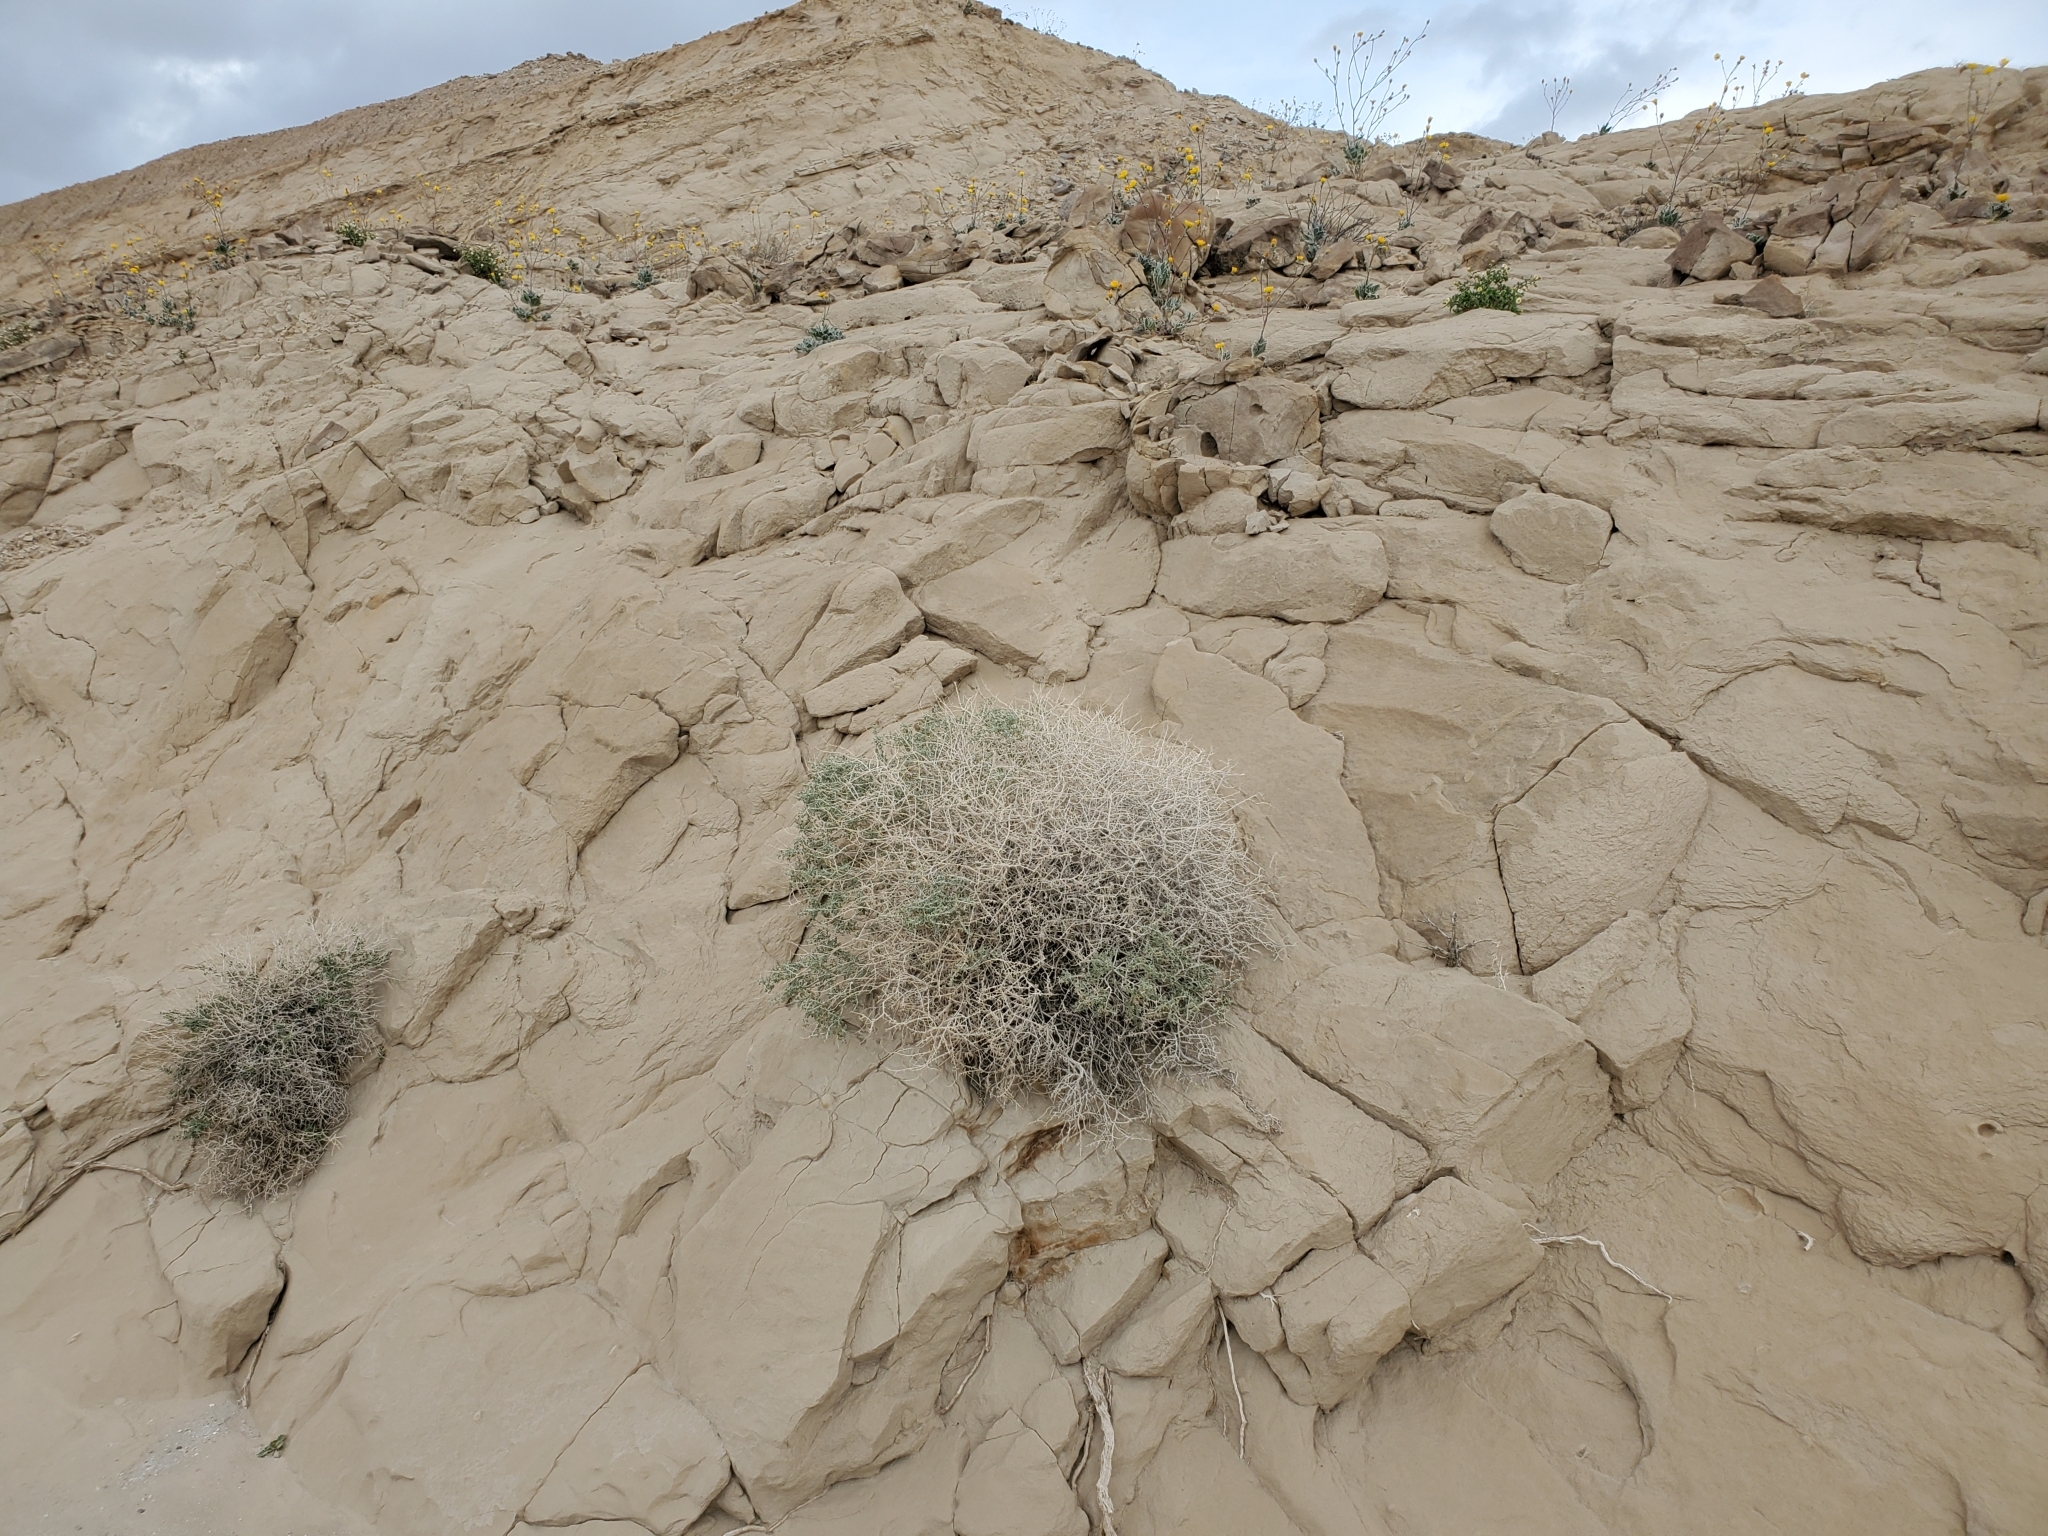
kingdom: Plantae
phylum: Tracheophyta
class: Magnoliopsida
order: Asterales
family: Asteraceae
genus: Ambrosia
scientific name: Ambrosia dumosa
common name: Bur-sage
